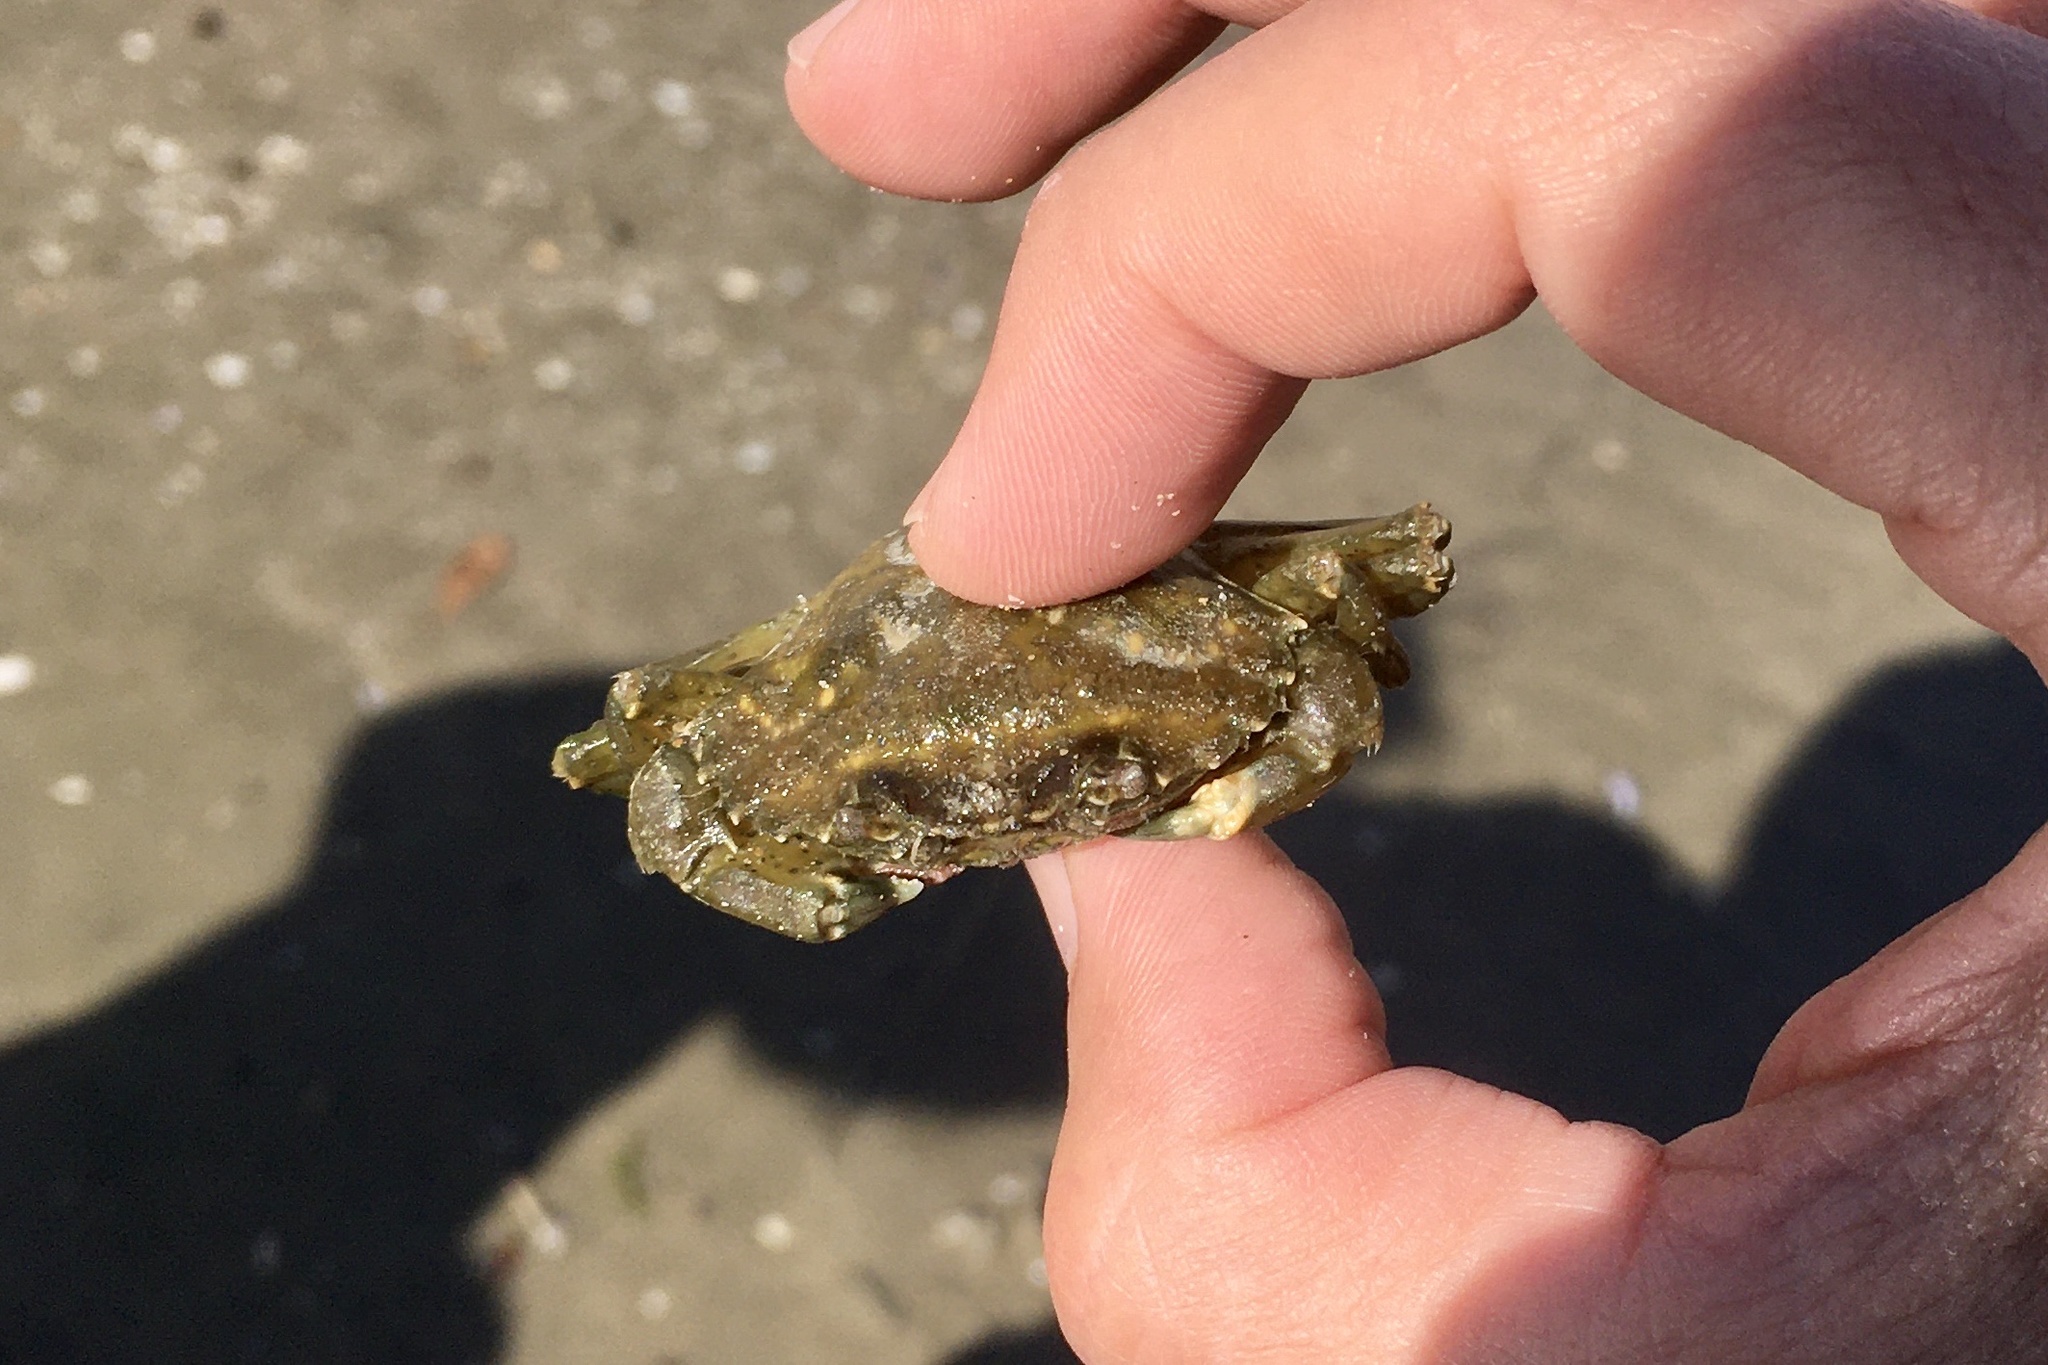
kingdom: Animalia
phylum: Arthropoda
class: Malacostraca
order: Decapoda
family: Carcinidae
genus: Carcinus
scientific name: Carcinus aestuarii
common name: Mediterranean green crab
